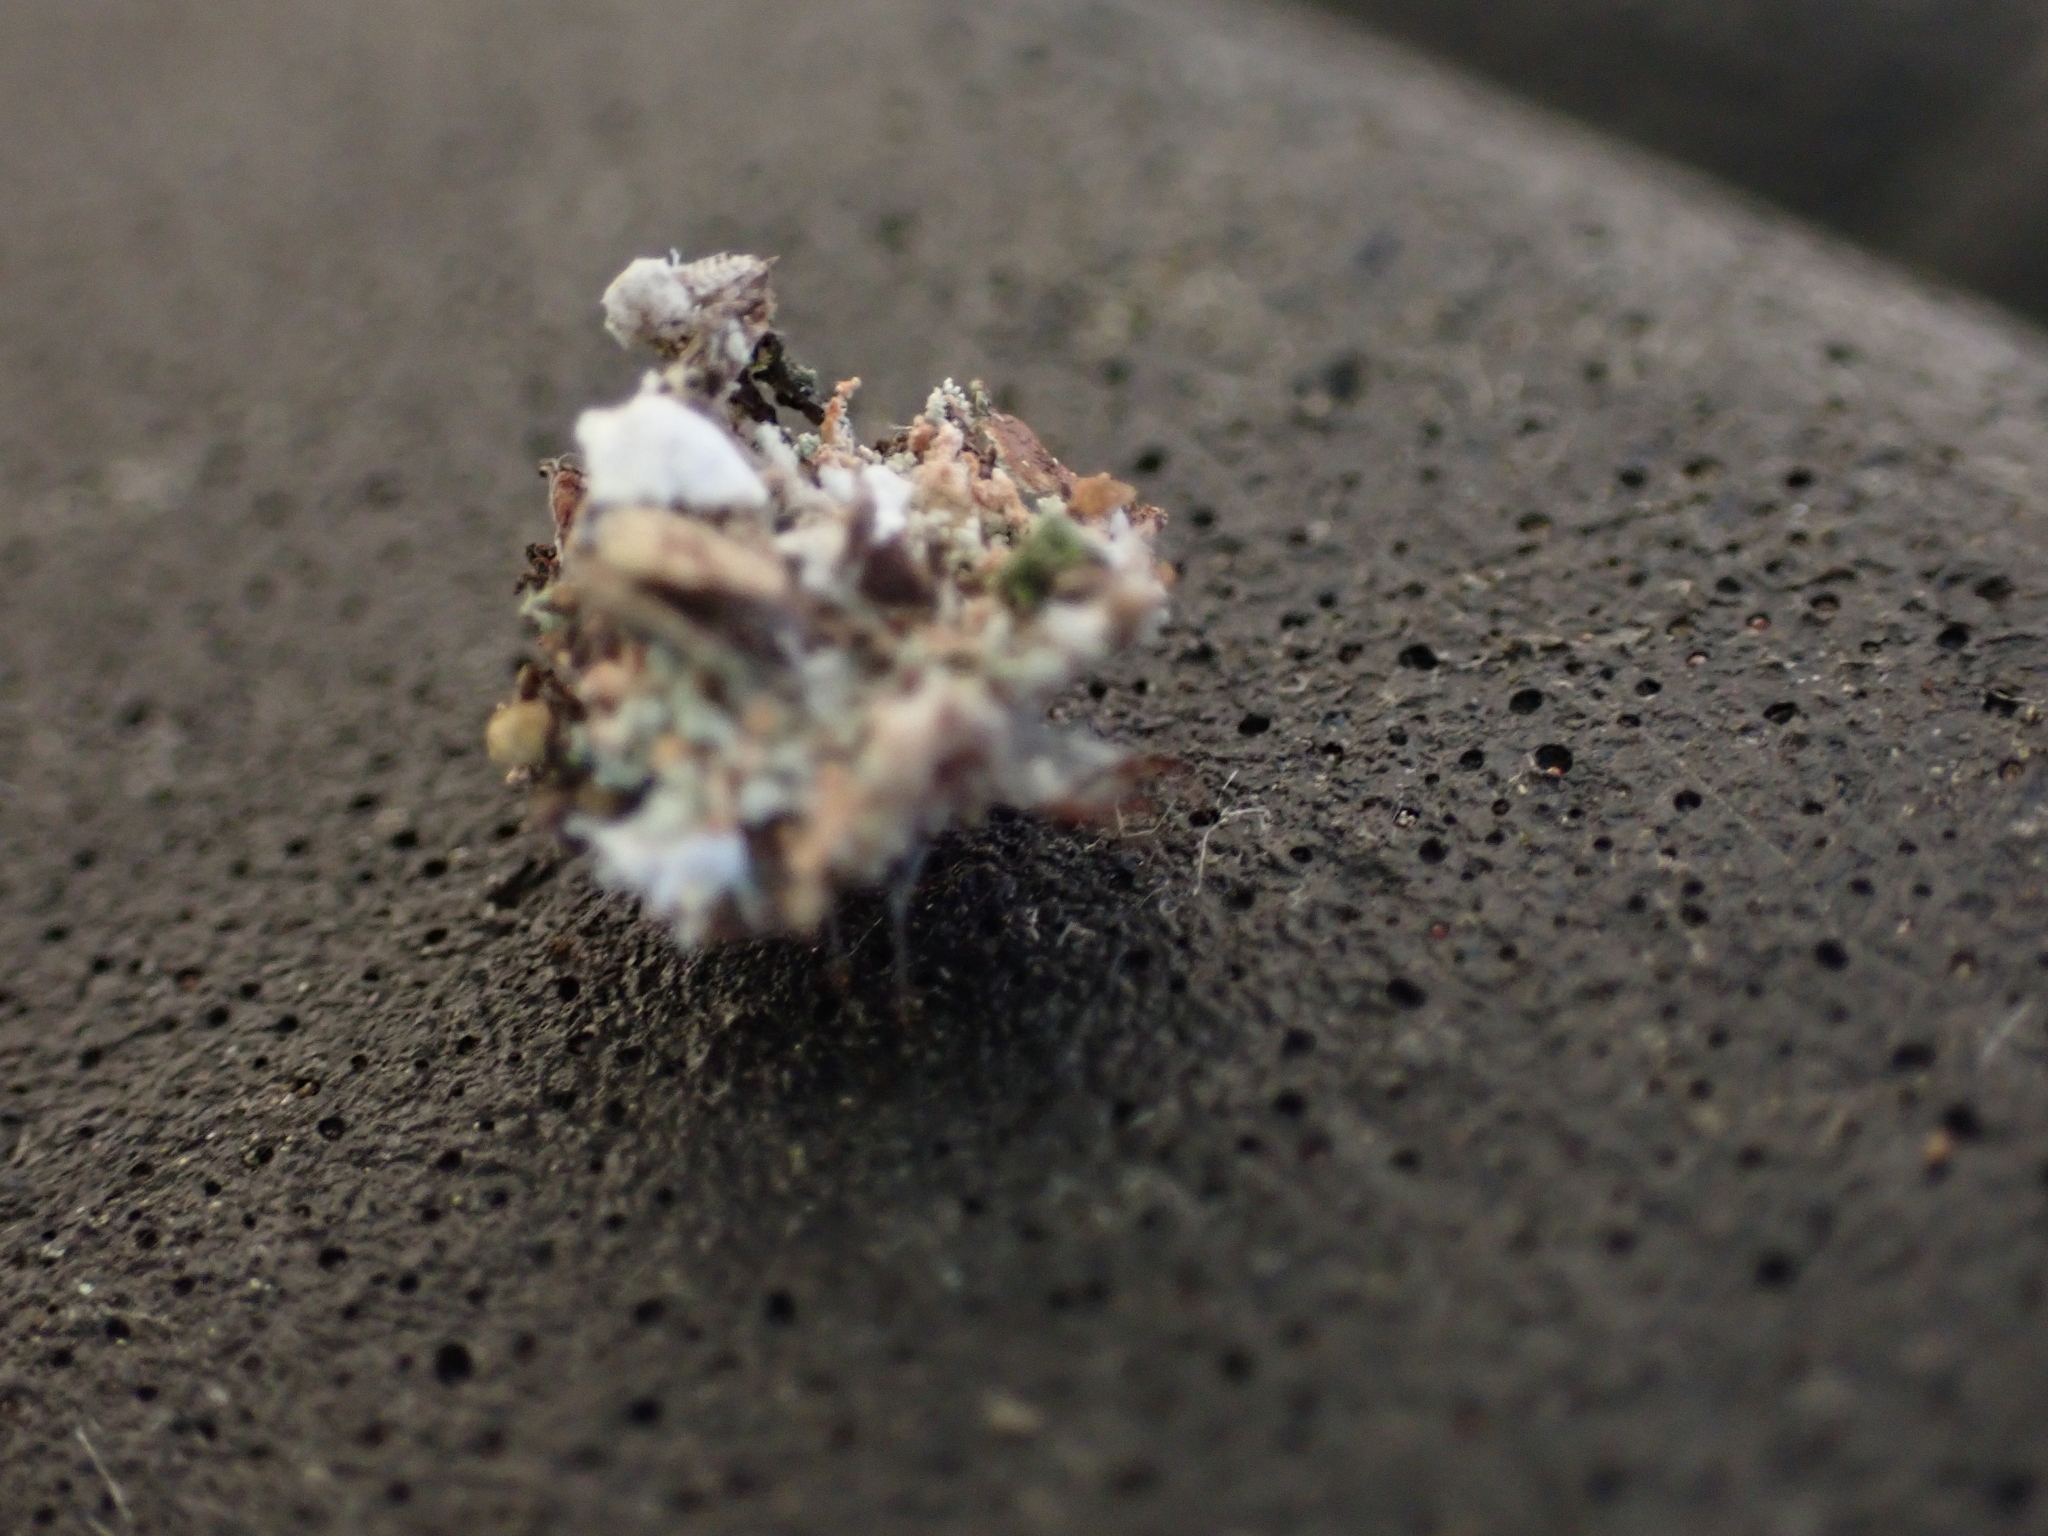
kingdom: Animalia
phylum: Arthropoda
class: Insecta
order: Neuroptera
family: Chrysopidae
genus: Leucochrysa
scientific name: Leucochrysa pavida
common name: Lichen-carrying green lacewing
